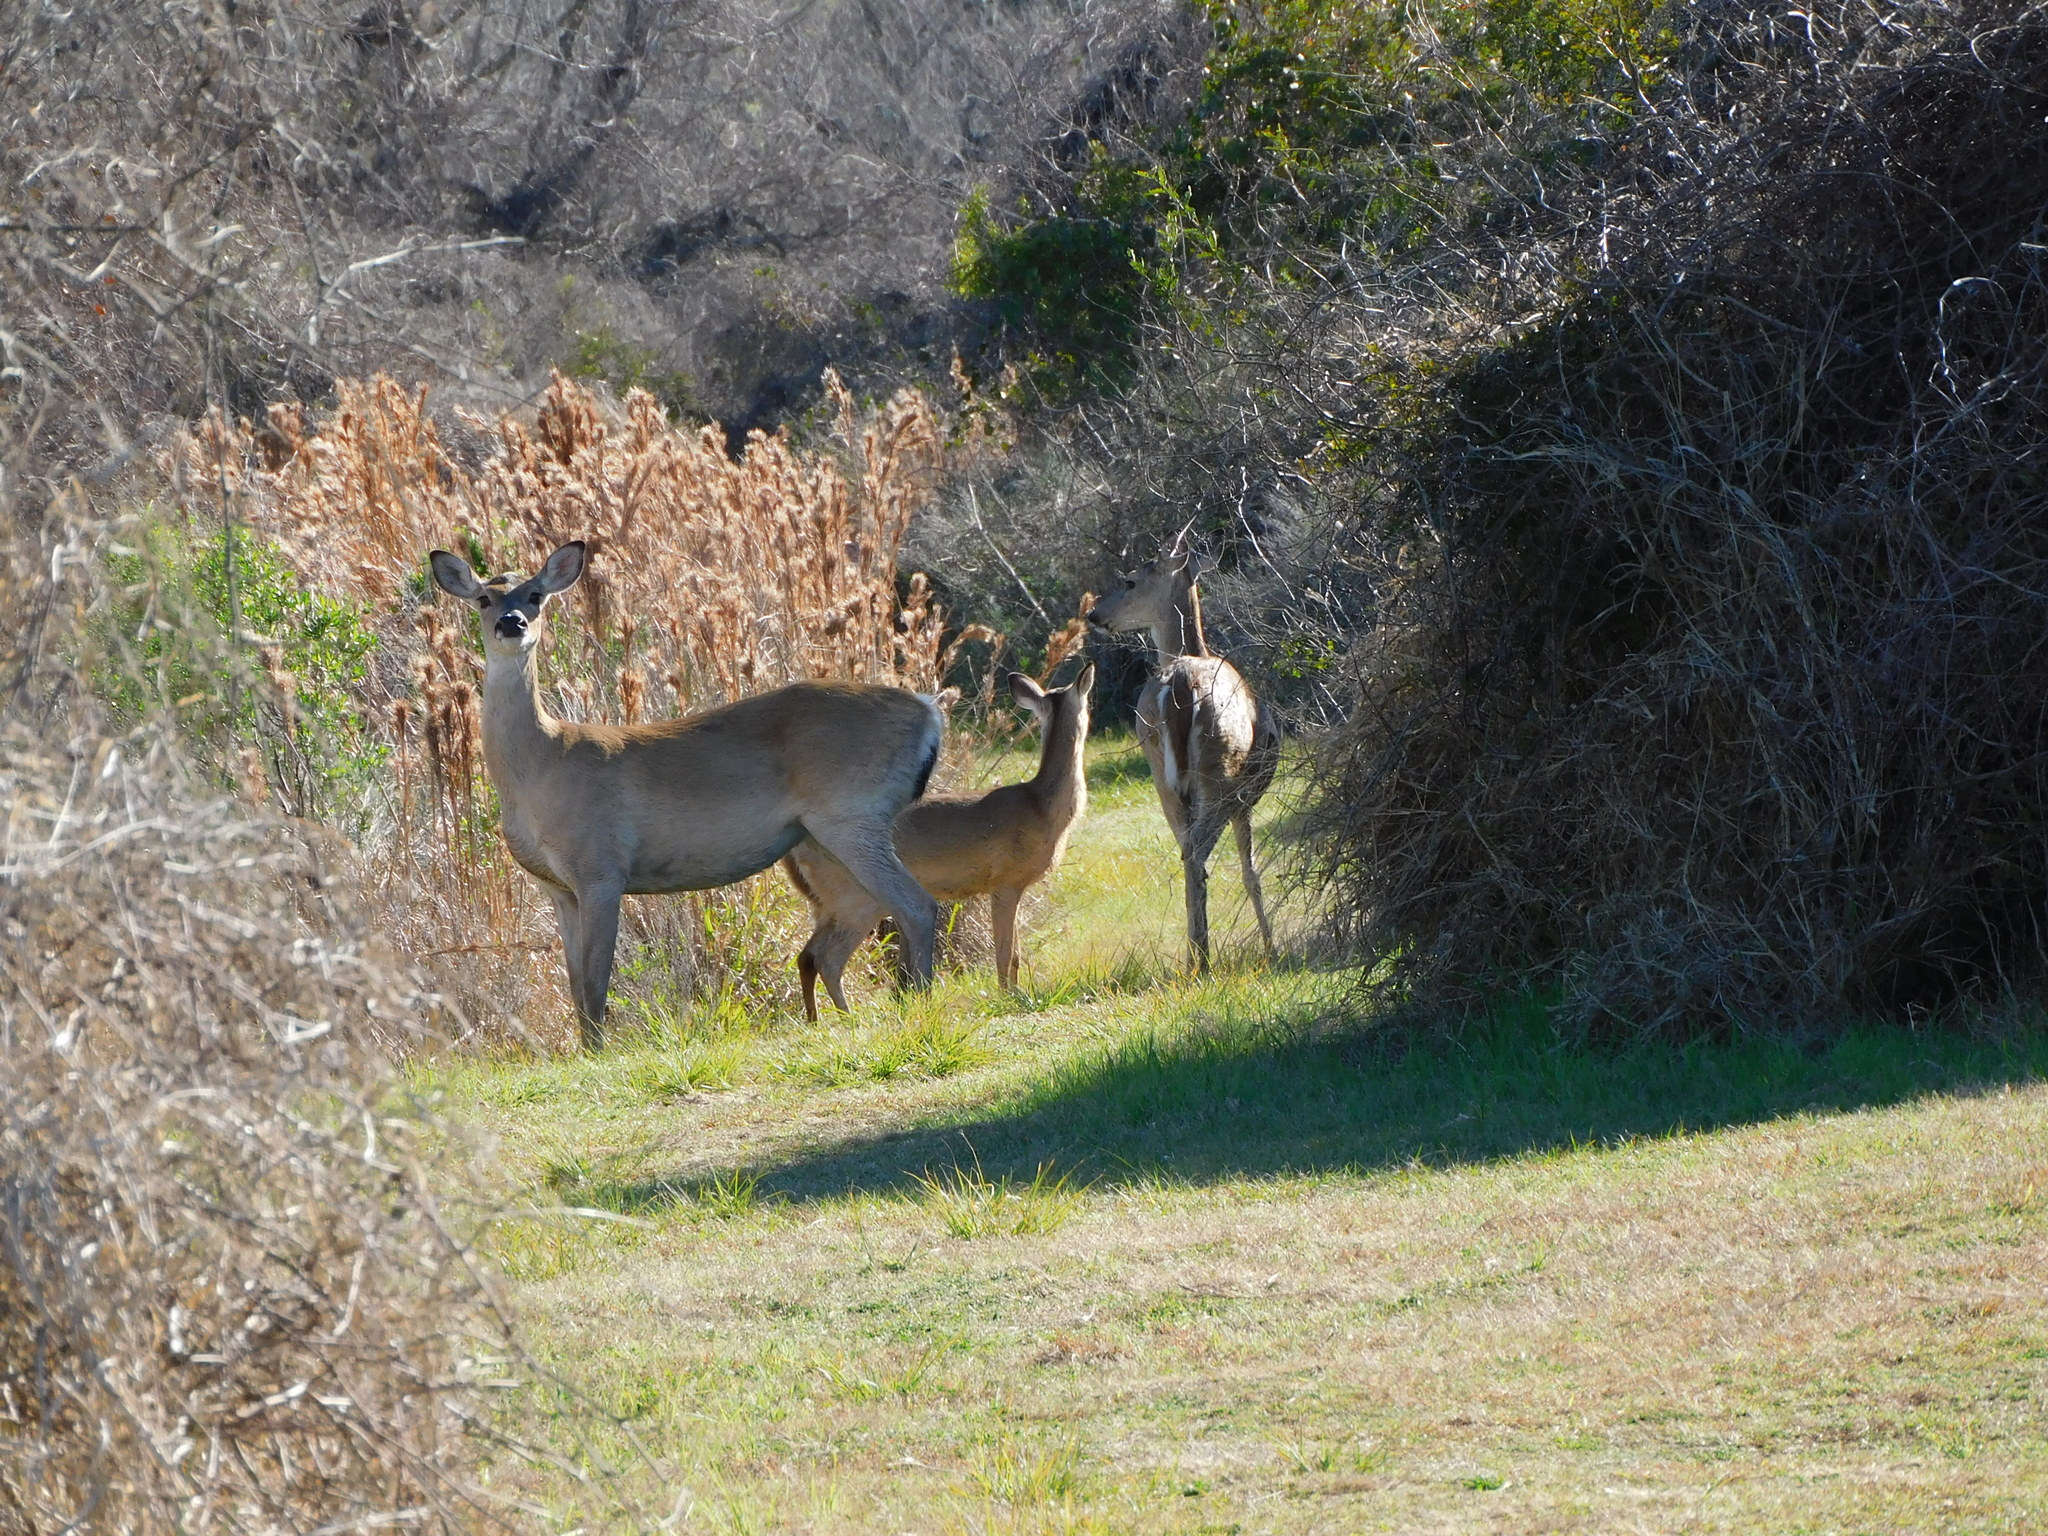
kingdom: Animalia
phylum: Chordata
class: Mammalia
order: Artiodactyla
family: Cervidae
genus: Odocoileus
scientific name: Odocoileus virginianus
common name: White-tailed deer
